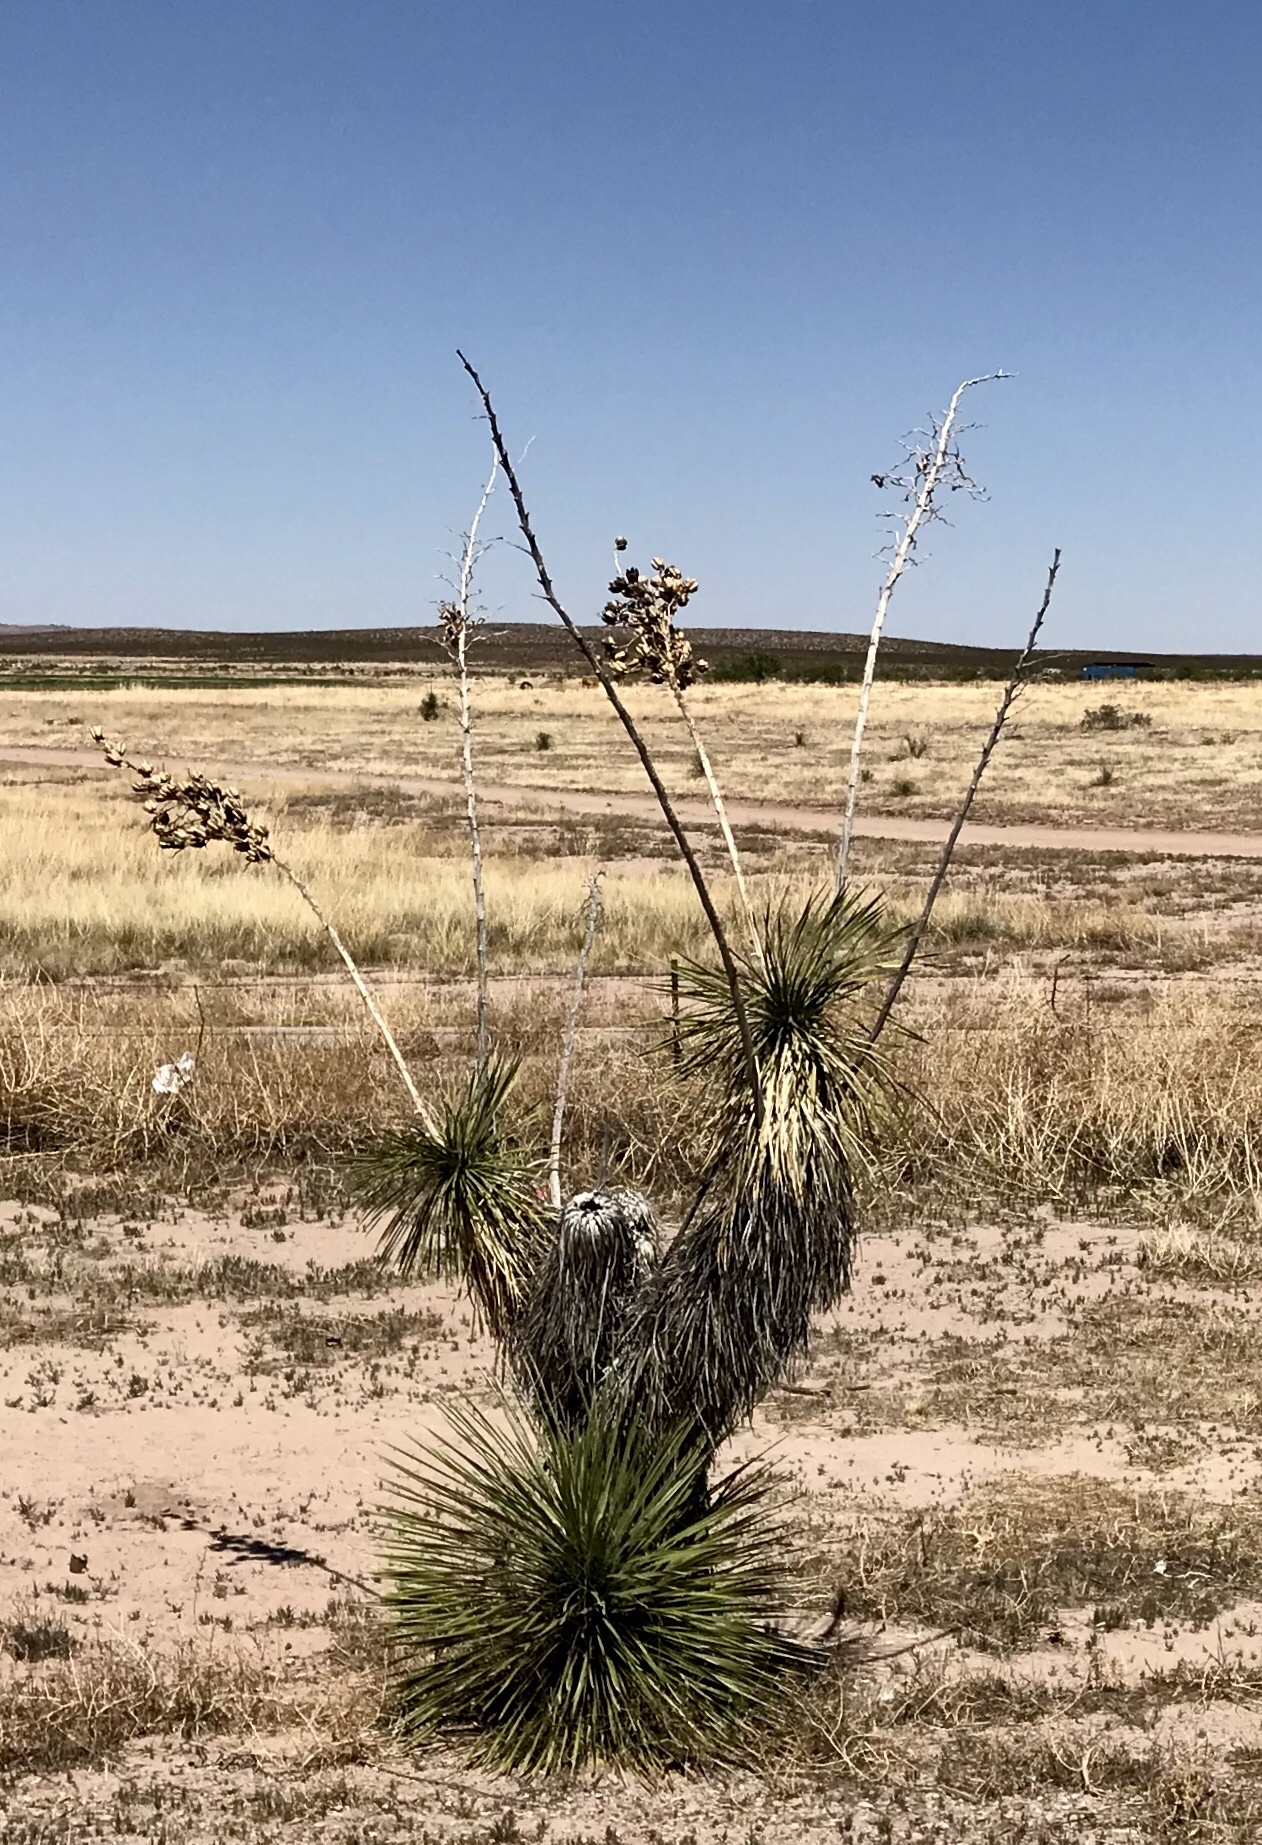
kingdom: Plantae
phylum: Tracheophyta
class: Liliopsida
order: Asparagales
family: Asparagaceae
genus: Yucca
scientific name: Yucca elata
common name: Palmella
